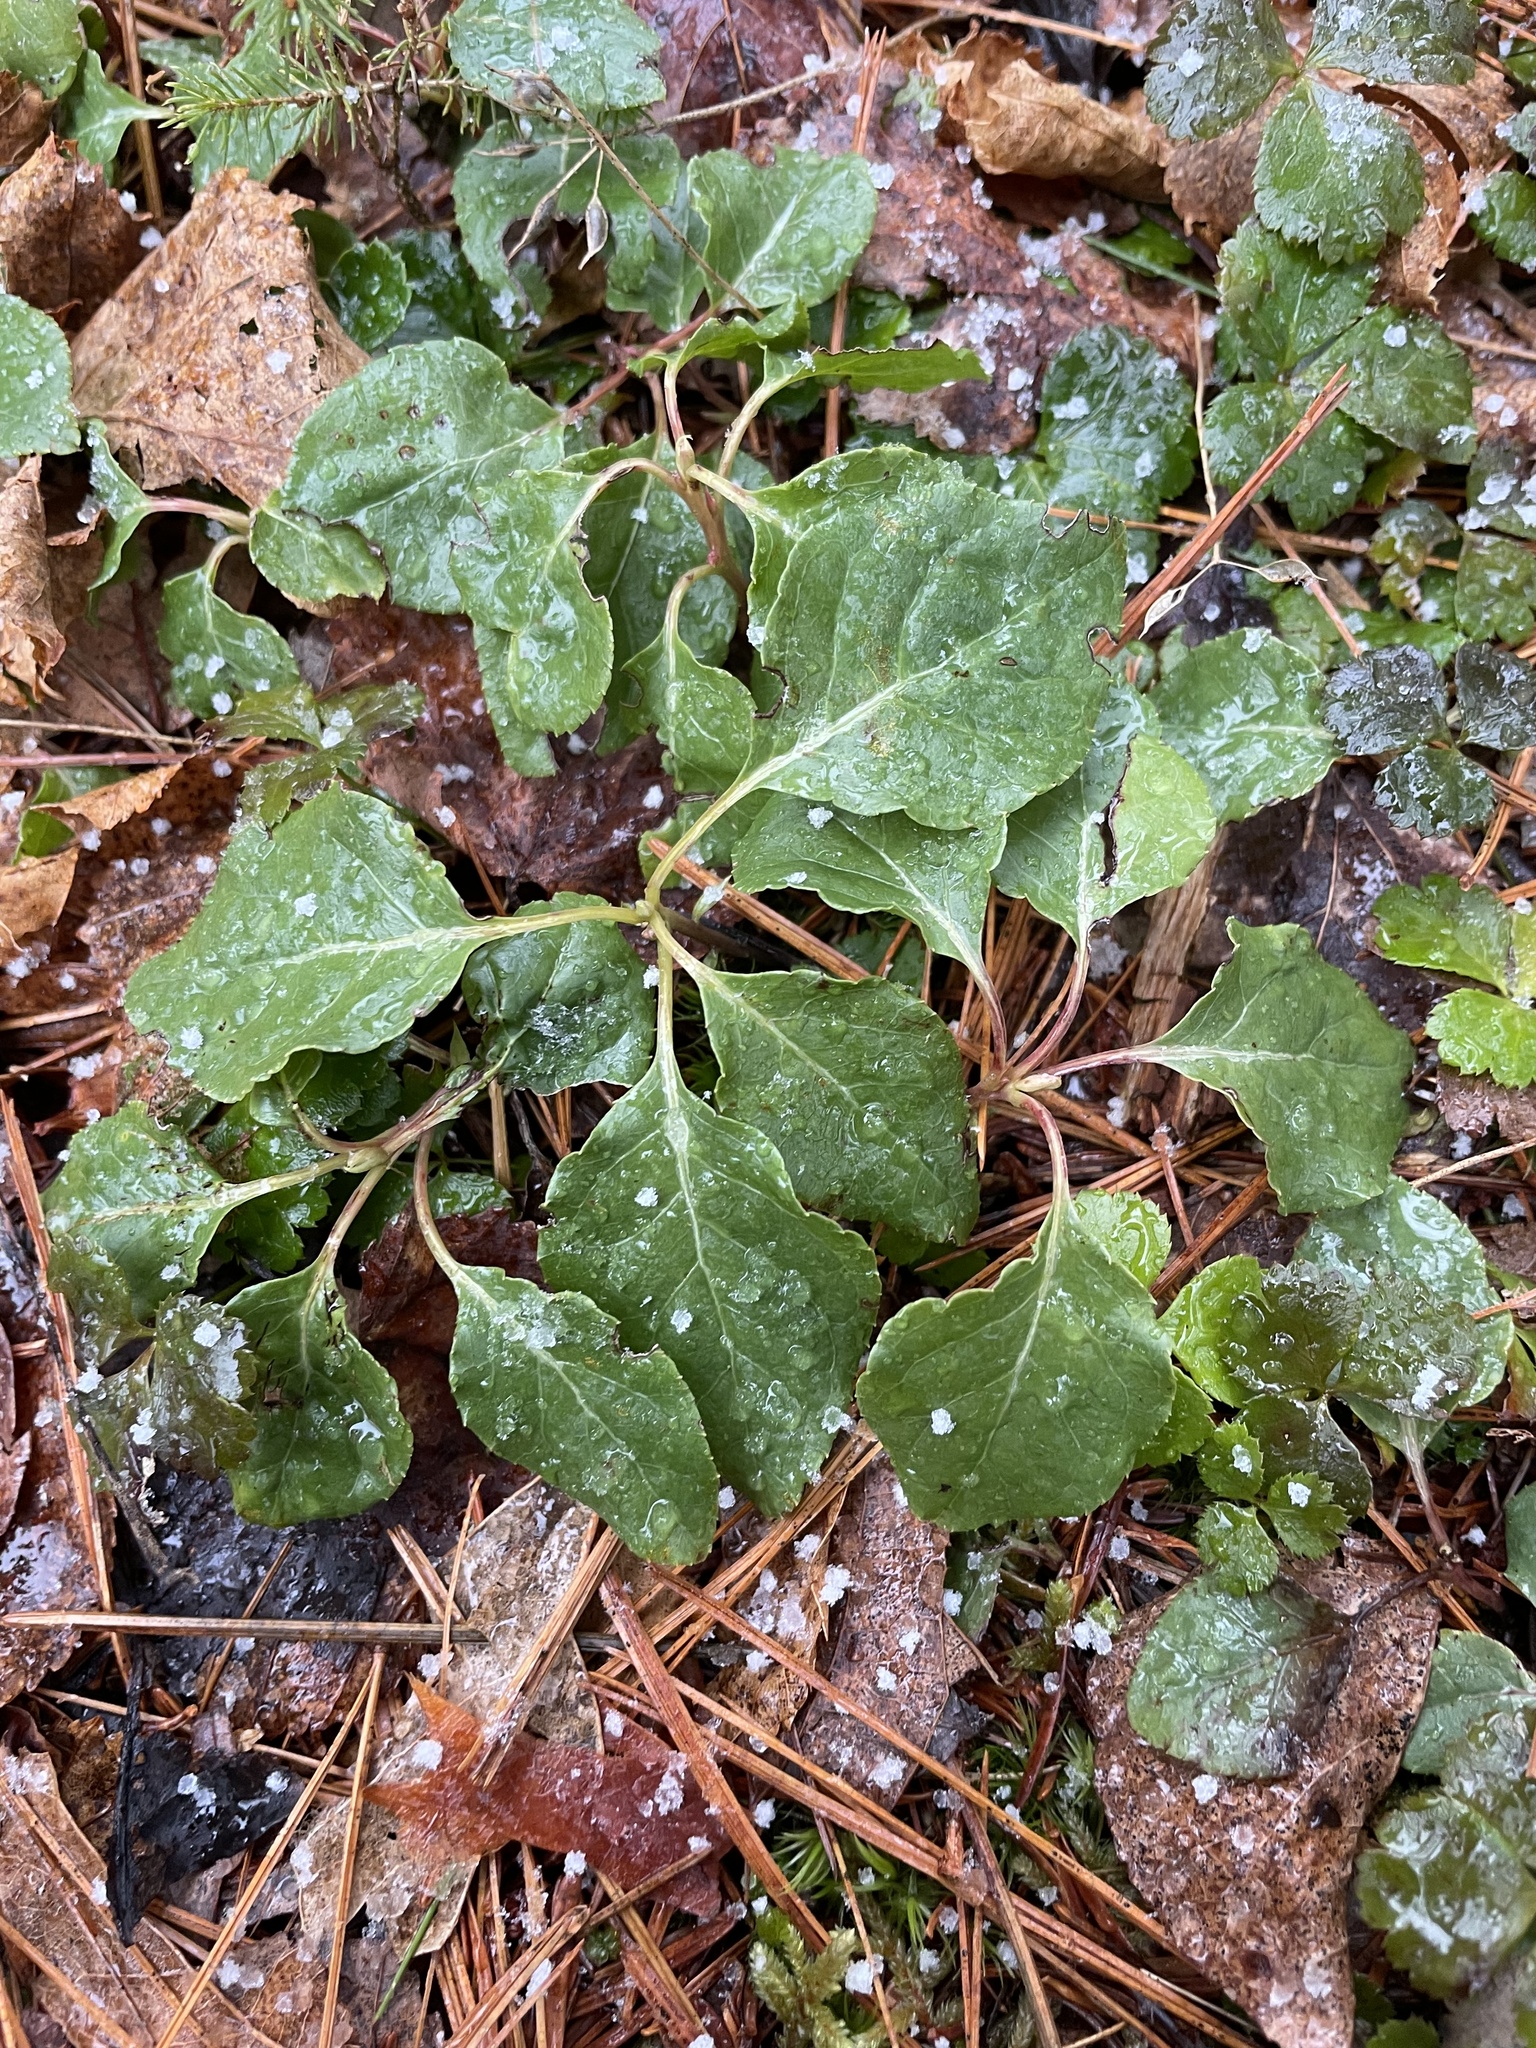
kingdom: Plantae
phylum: Tracheophyta
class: Magnoliopsida
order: Ericales
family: Ericaceae
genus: Orthilia
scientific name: Orthilia secunda
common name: One-sided orthilia
